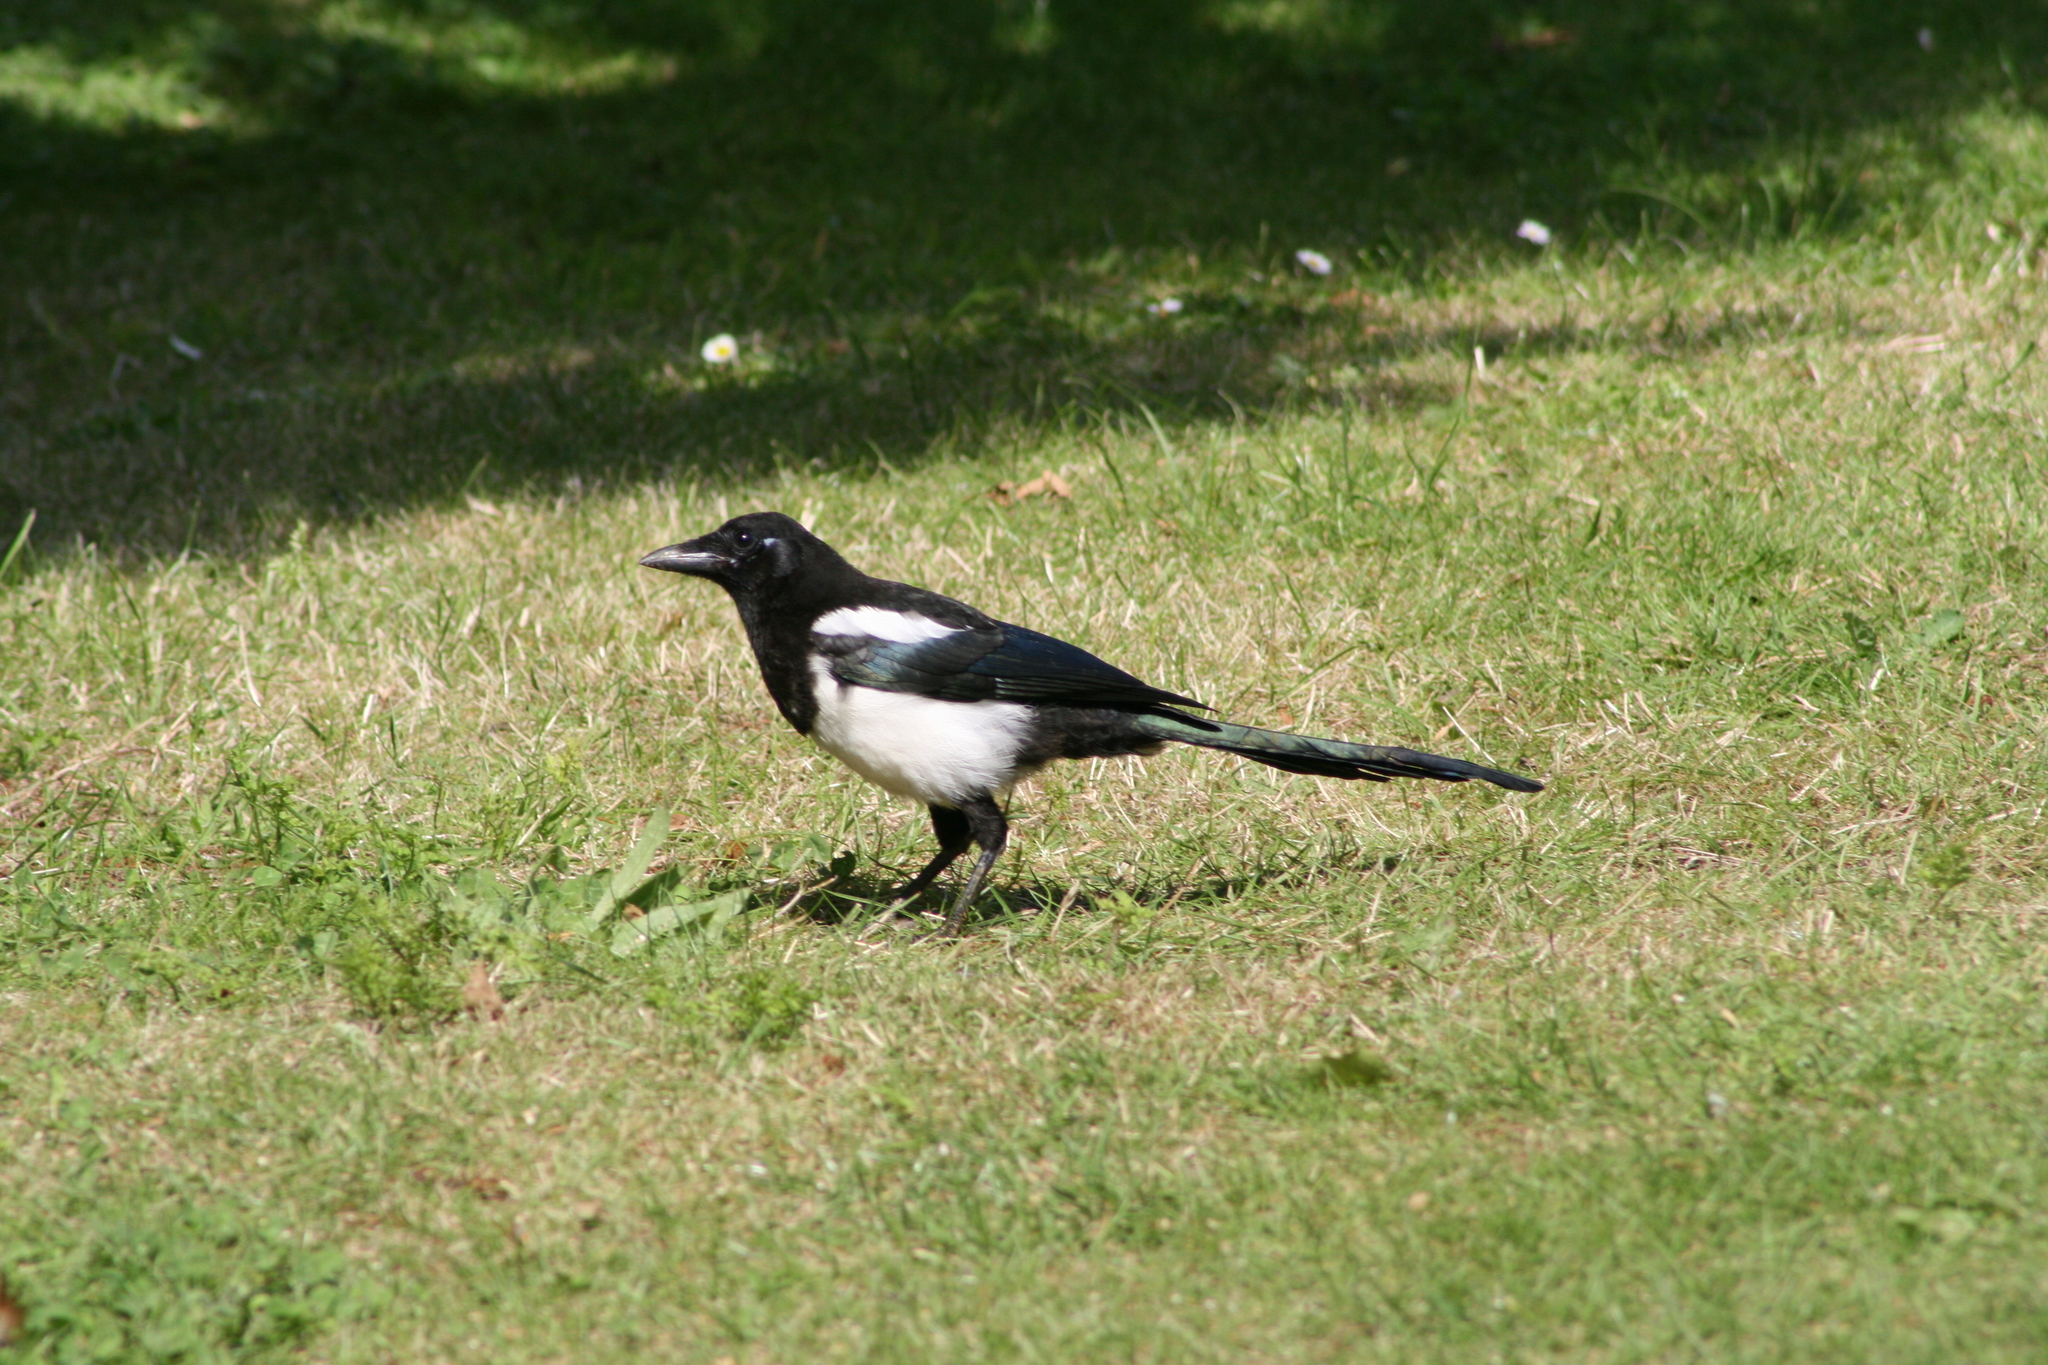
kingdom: Animalia
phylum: Chordata
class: Aves
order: Passeriformes
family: Corvidae
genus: Pica
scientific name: Pica pica
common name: Eurasian magpie
